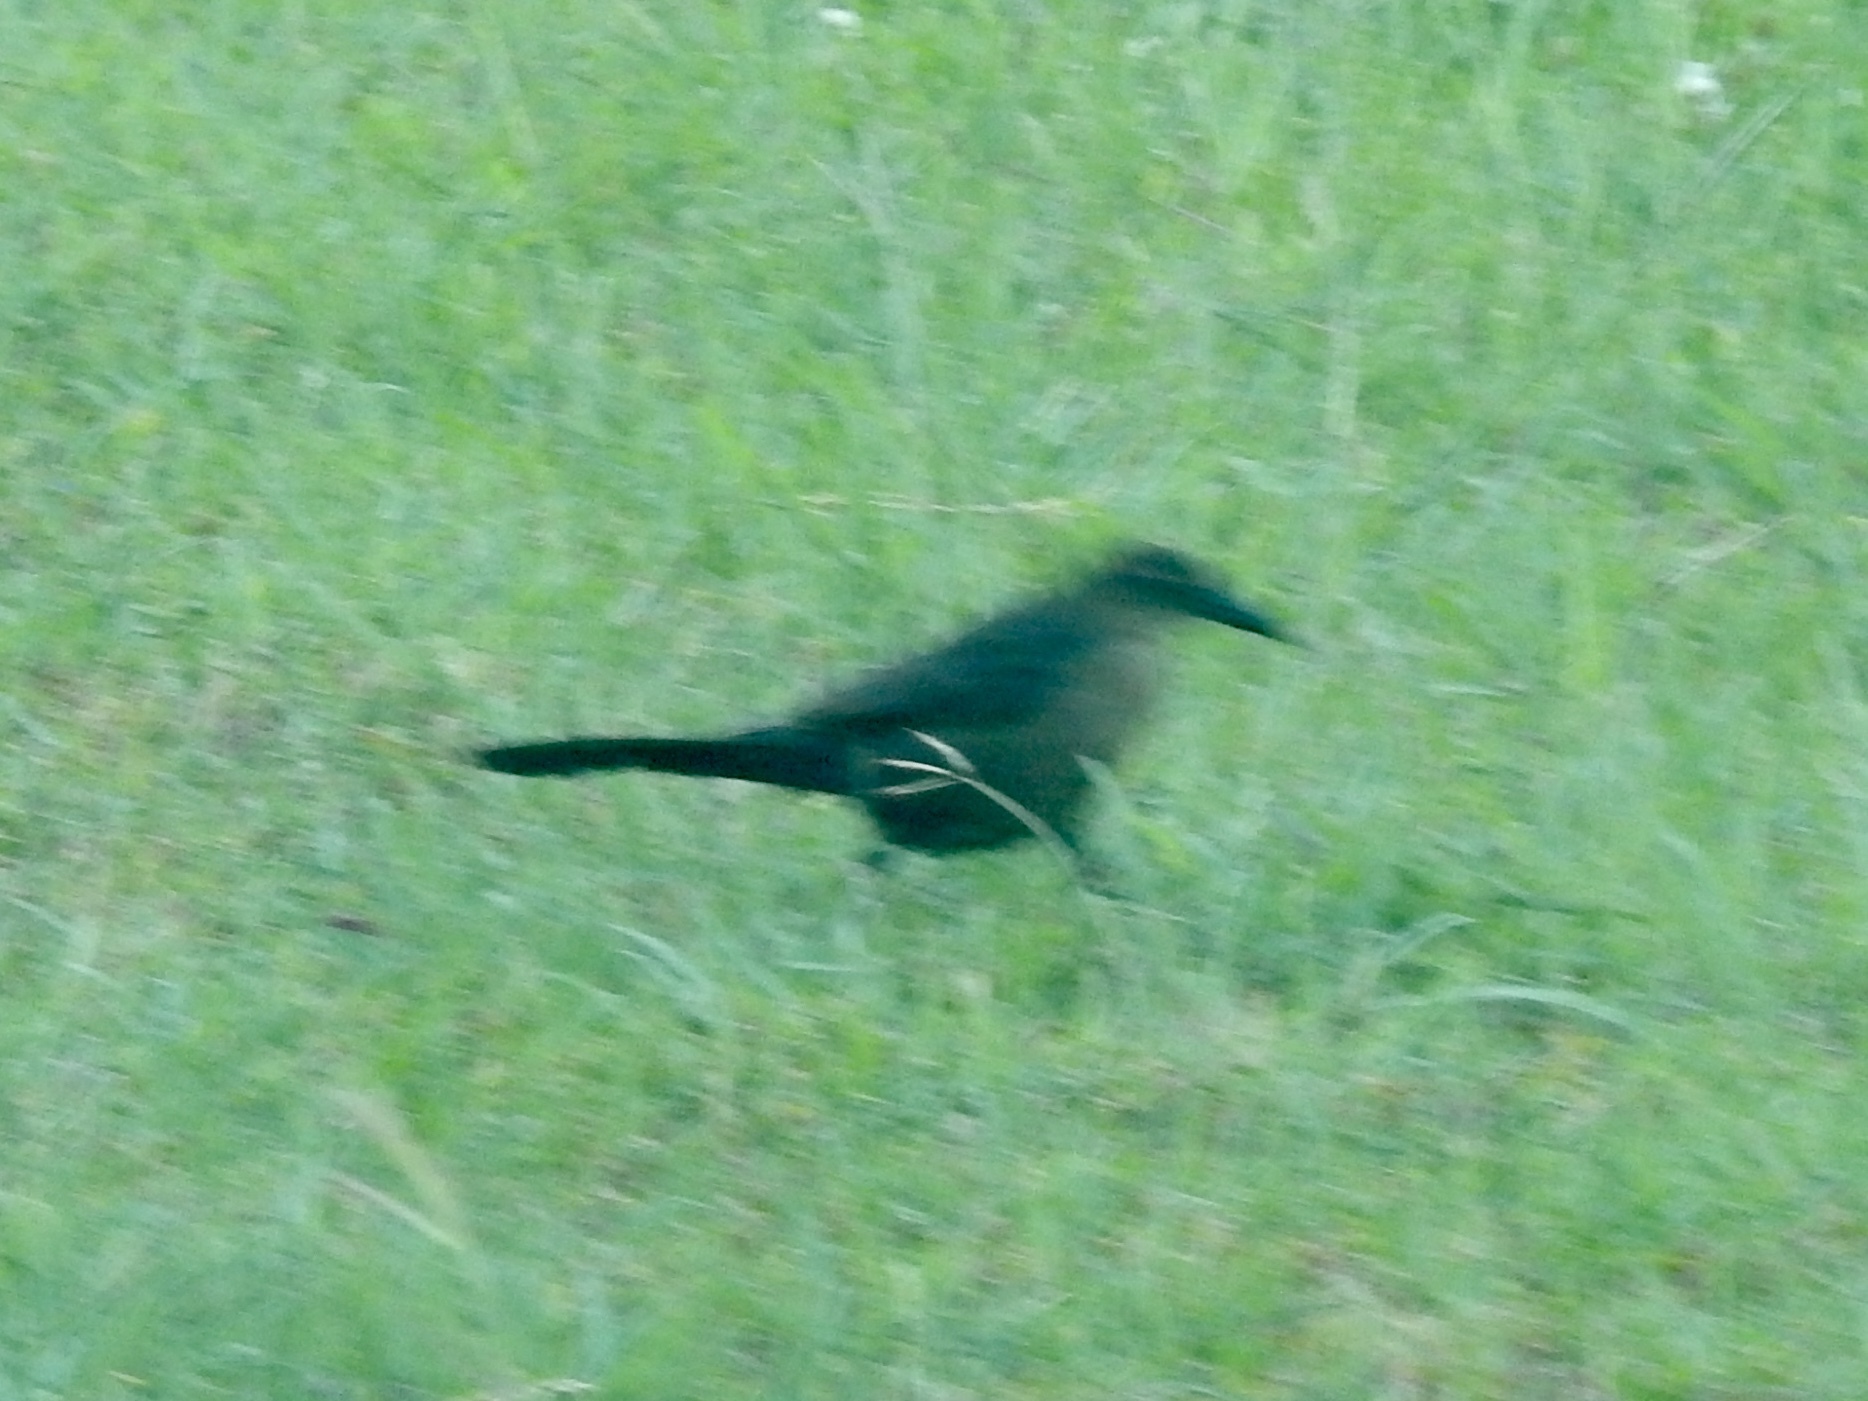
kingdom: Animalia
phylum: Chordata
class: Aves
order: Passeriformes
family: Icteridae
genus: Quiscalus
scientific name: Quiscalus mexicanus
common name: Great-tailed grackle
